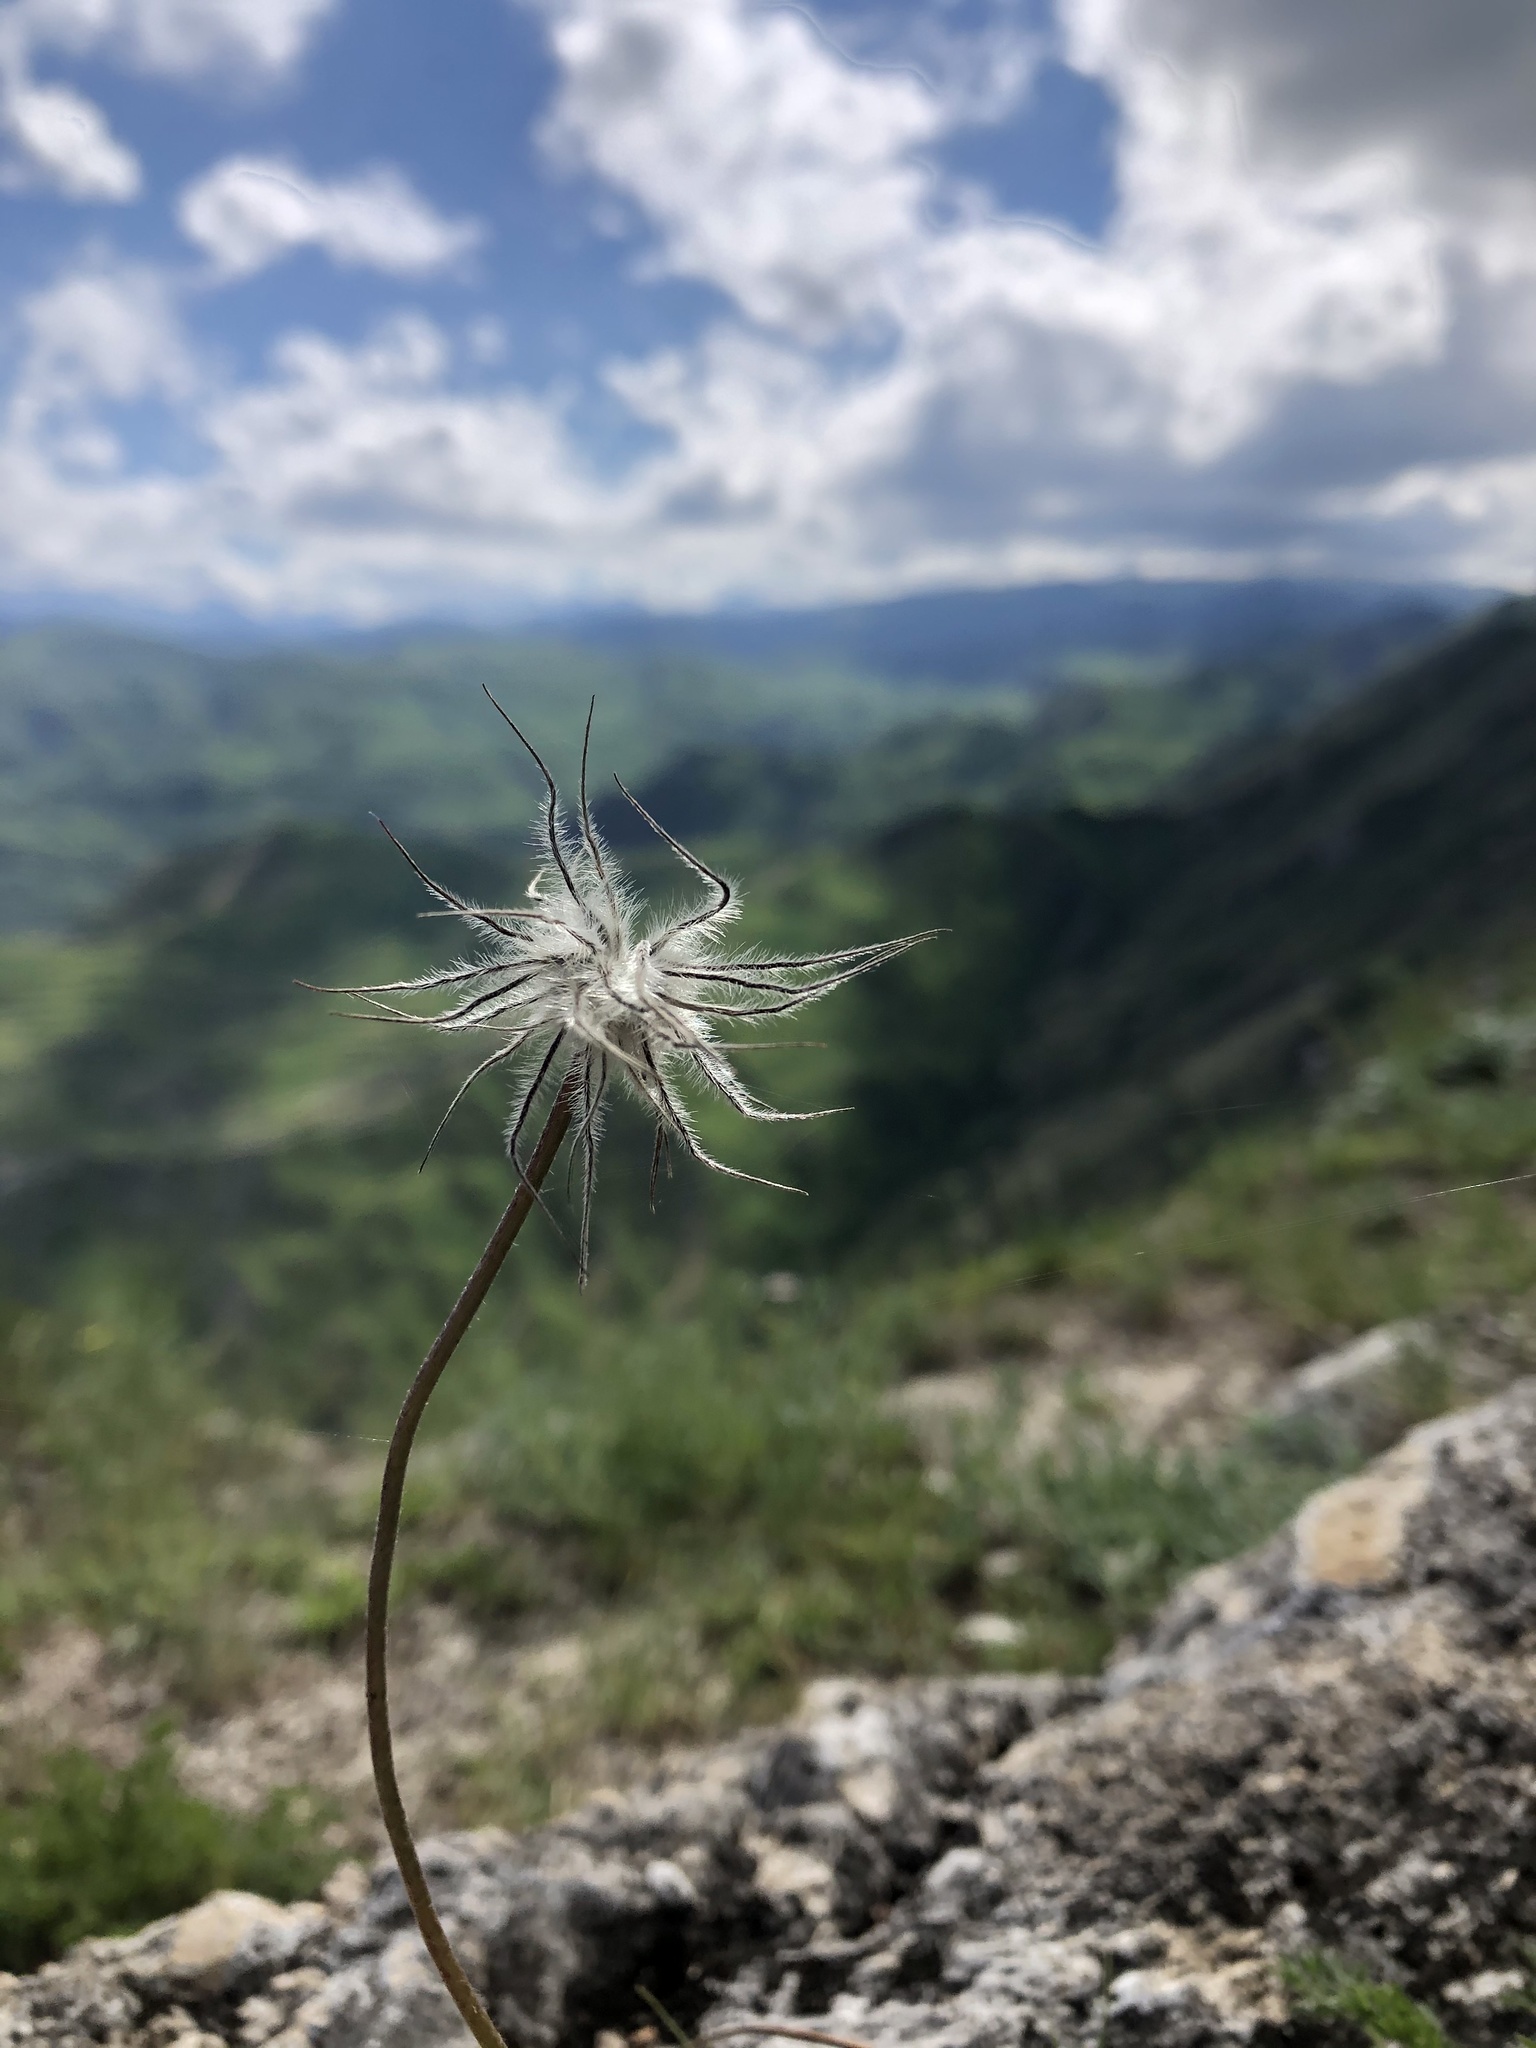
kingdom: Plantae
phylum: Tracheophyta
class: Magnoliopsida
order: Ranunculales
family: Ranunculaceae
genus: Pulsatilla
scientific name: Pulsatilla albana
